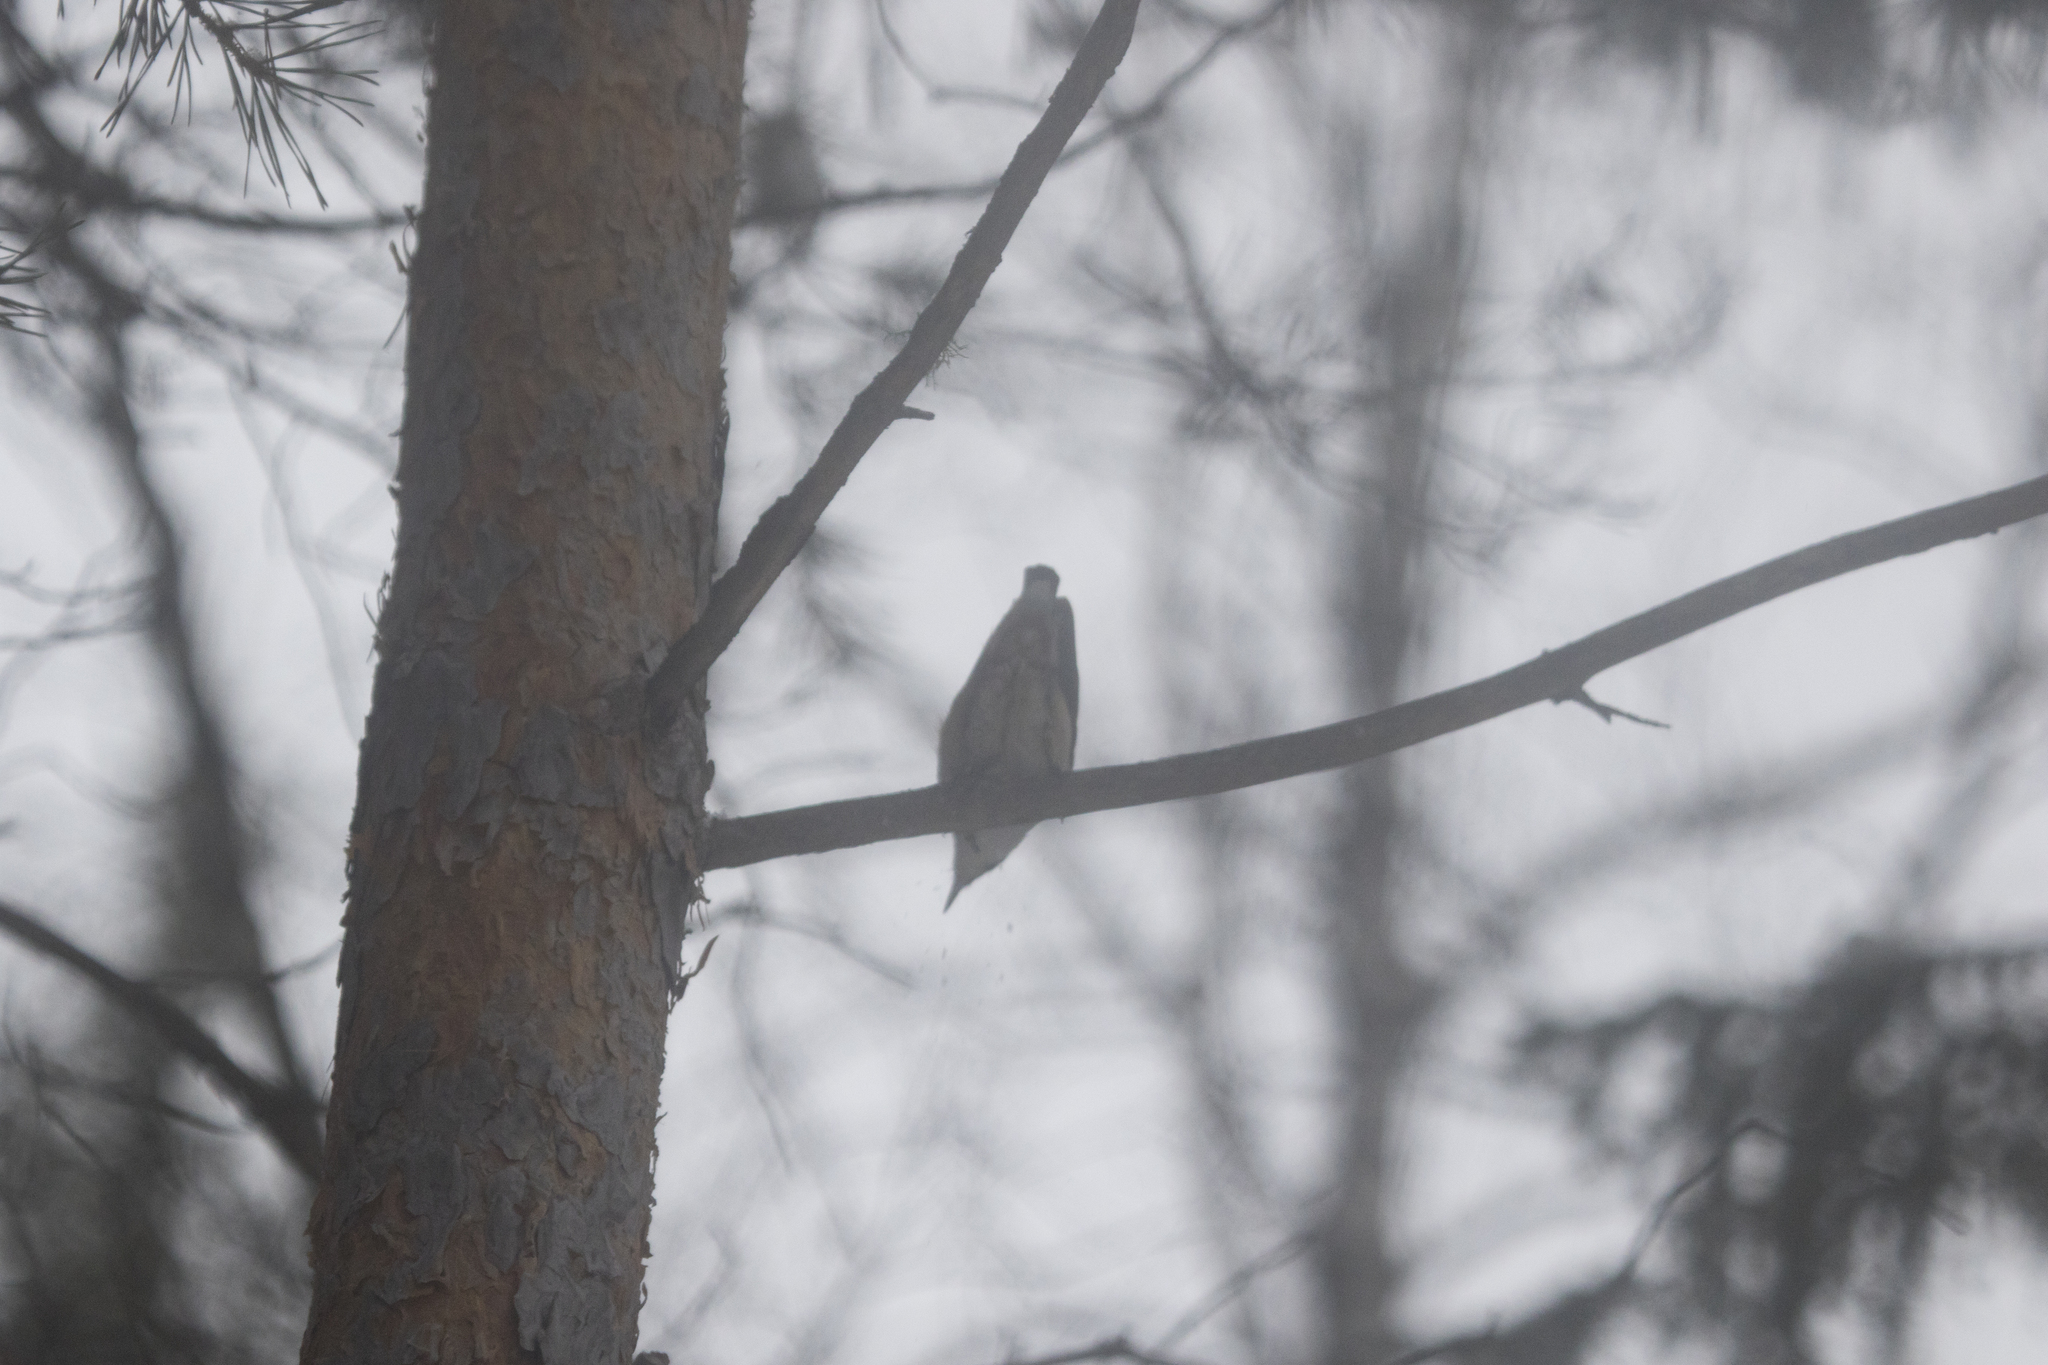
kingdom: Animalia
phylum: Chordata
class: Aves
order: Passeriformes
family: Sittidae
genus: Sitta
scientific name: Sitta europaea
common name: Eurasian nuthatch
